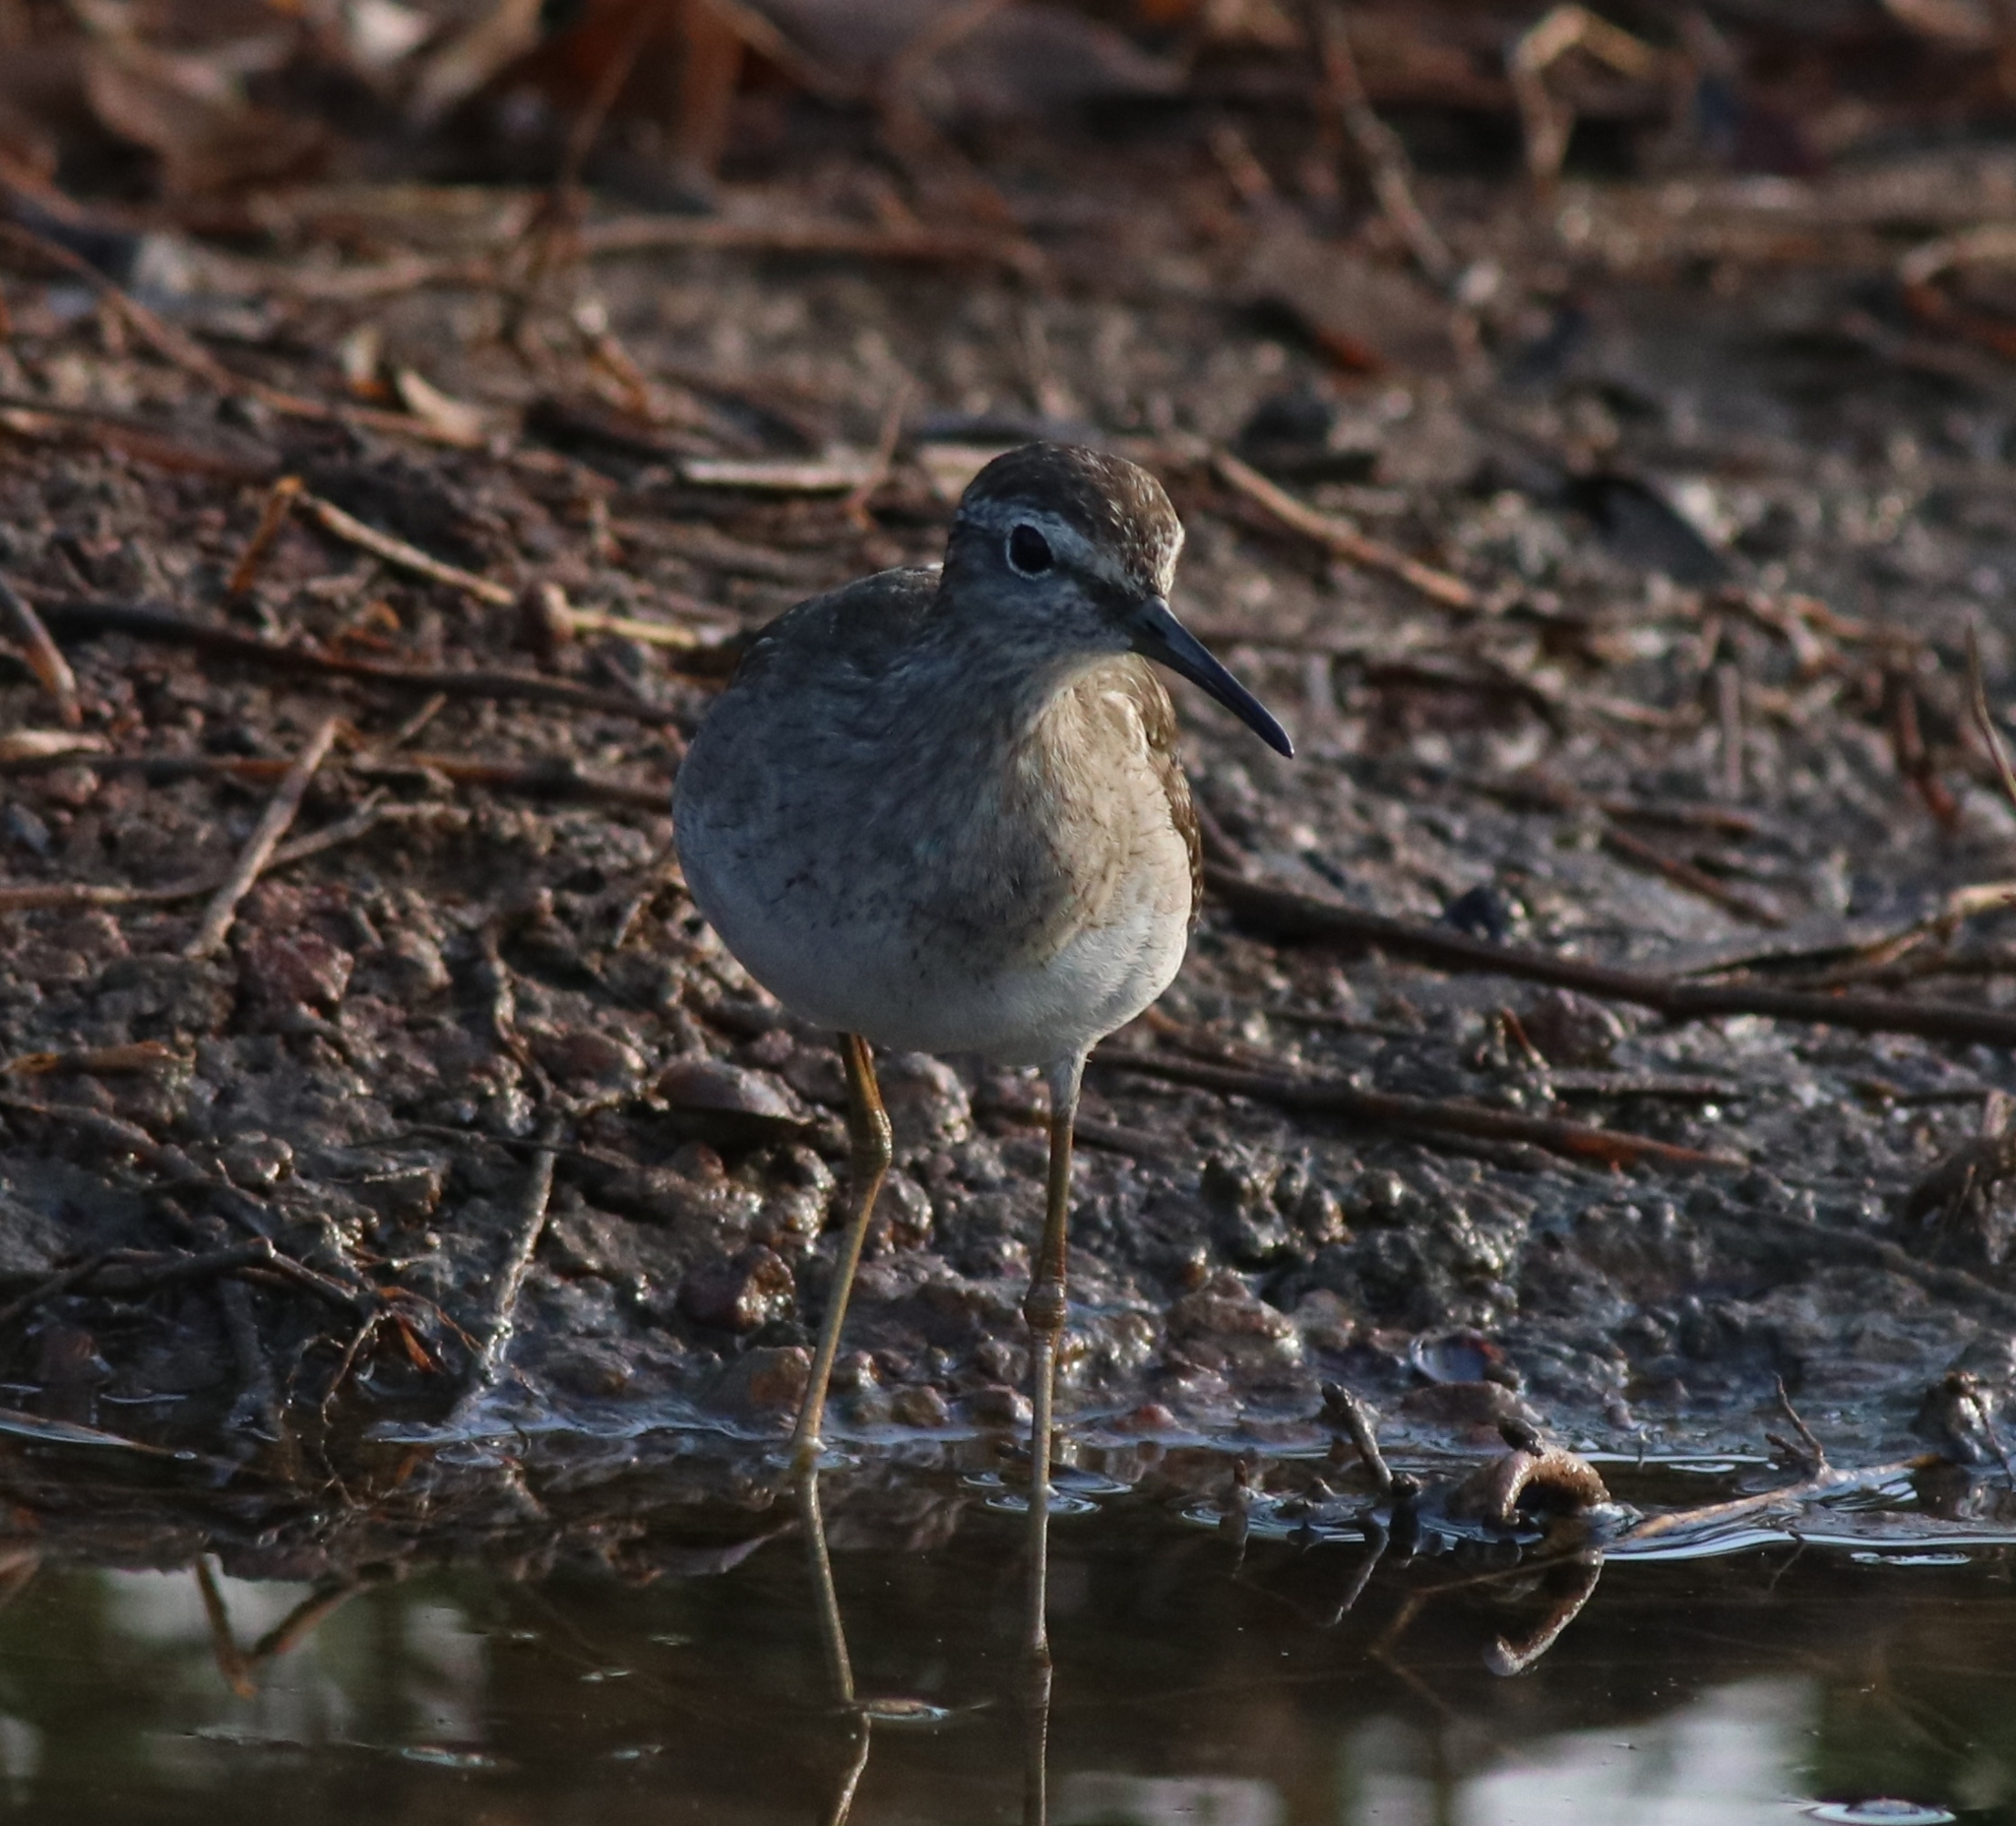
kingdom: Animalia
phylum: Chordata
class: Aves
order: Charadriiformes
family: Scolopacidae
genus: Tringa
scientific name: Tringa glareola
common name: Wood sandpiper
